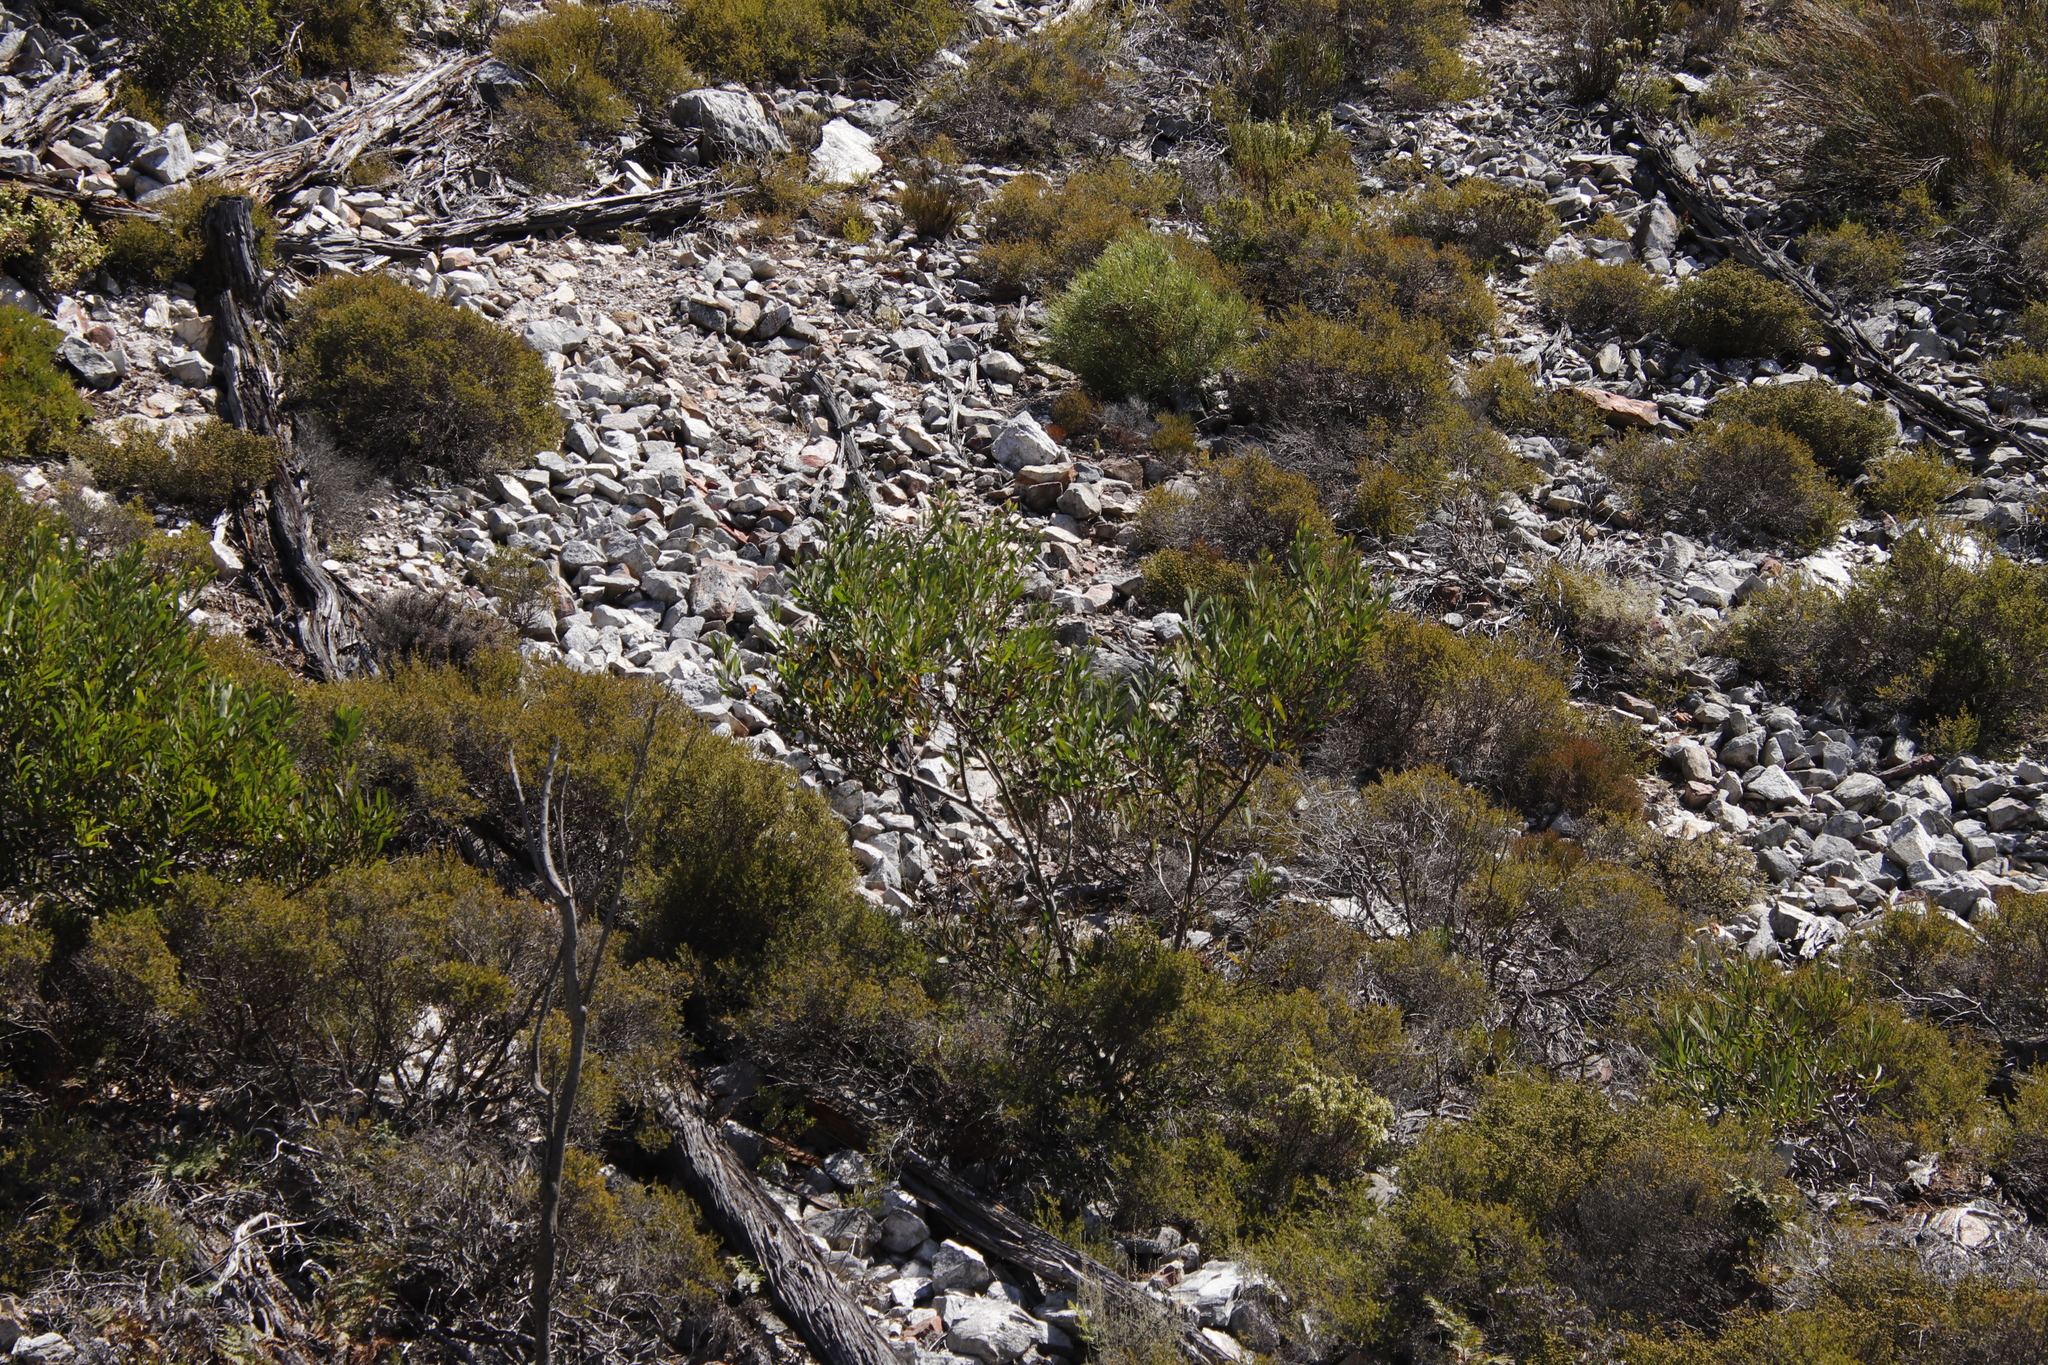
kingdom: Plantae
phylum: Tracheophyta
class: Magnoliopsida
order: Fabales
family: Fabaceae
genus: Acacia
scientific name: Acacia longifolia
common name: Sydney golden wattle
